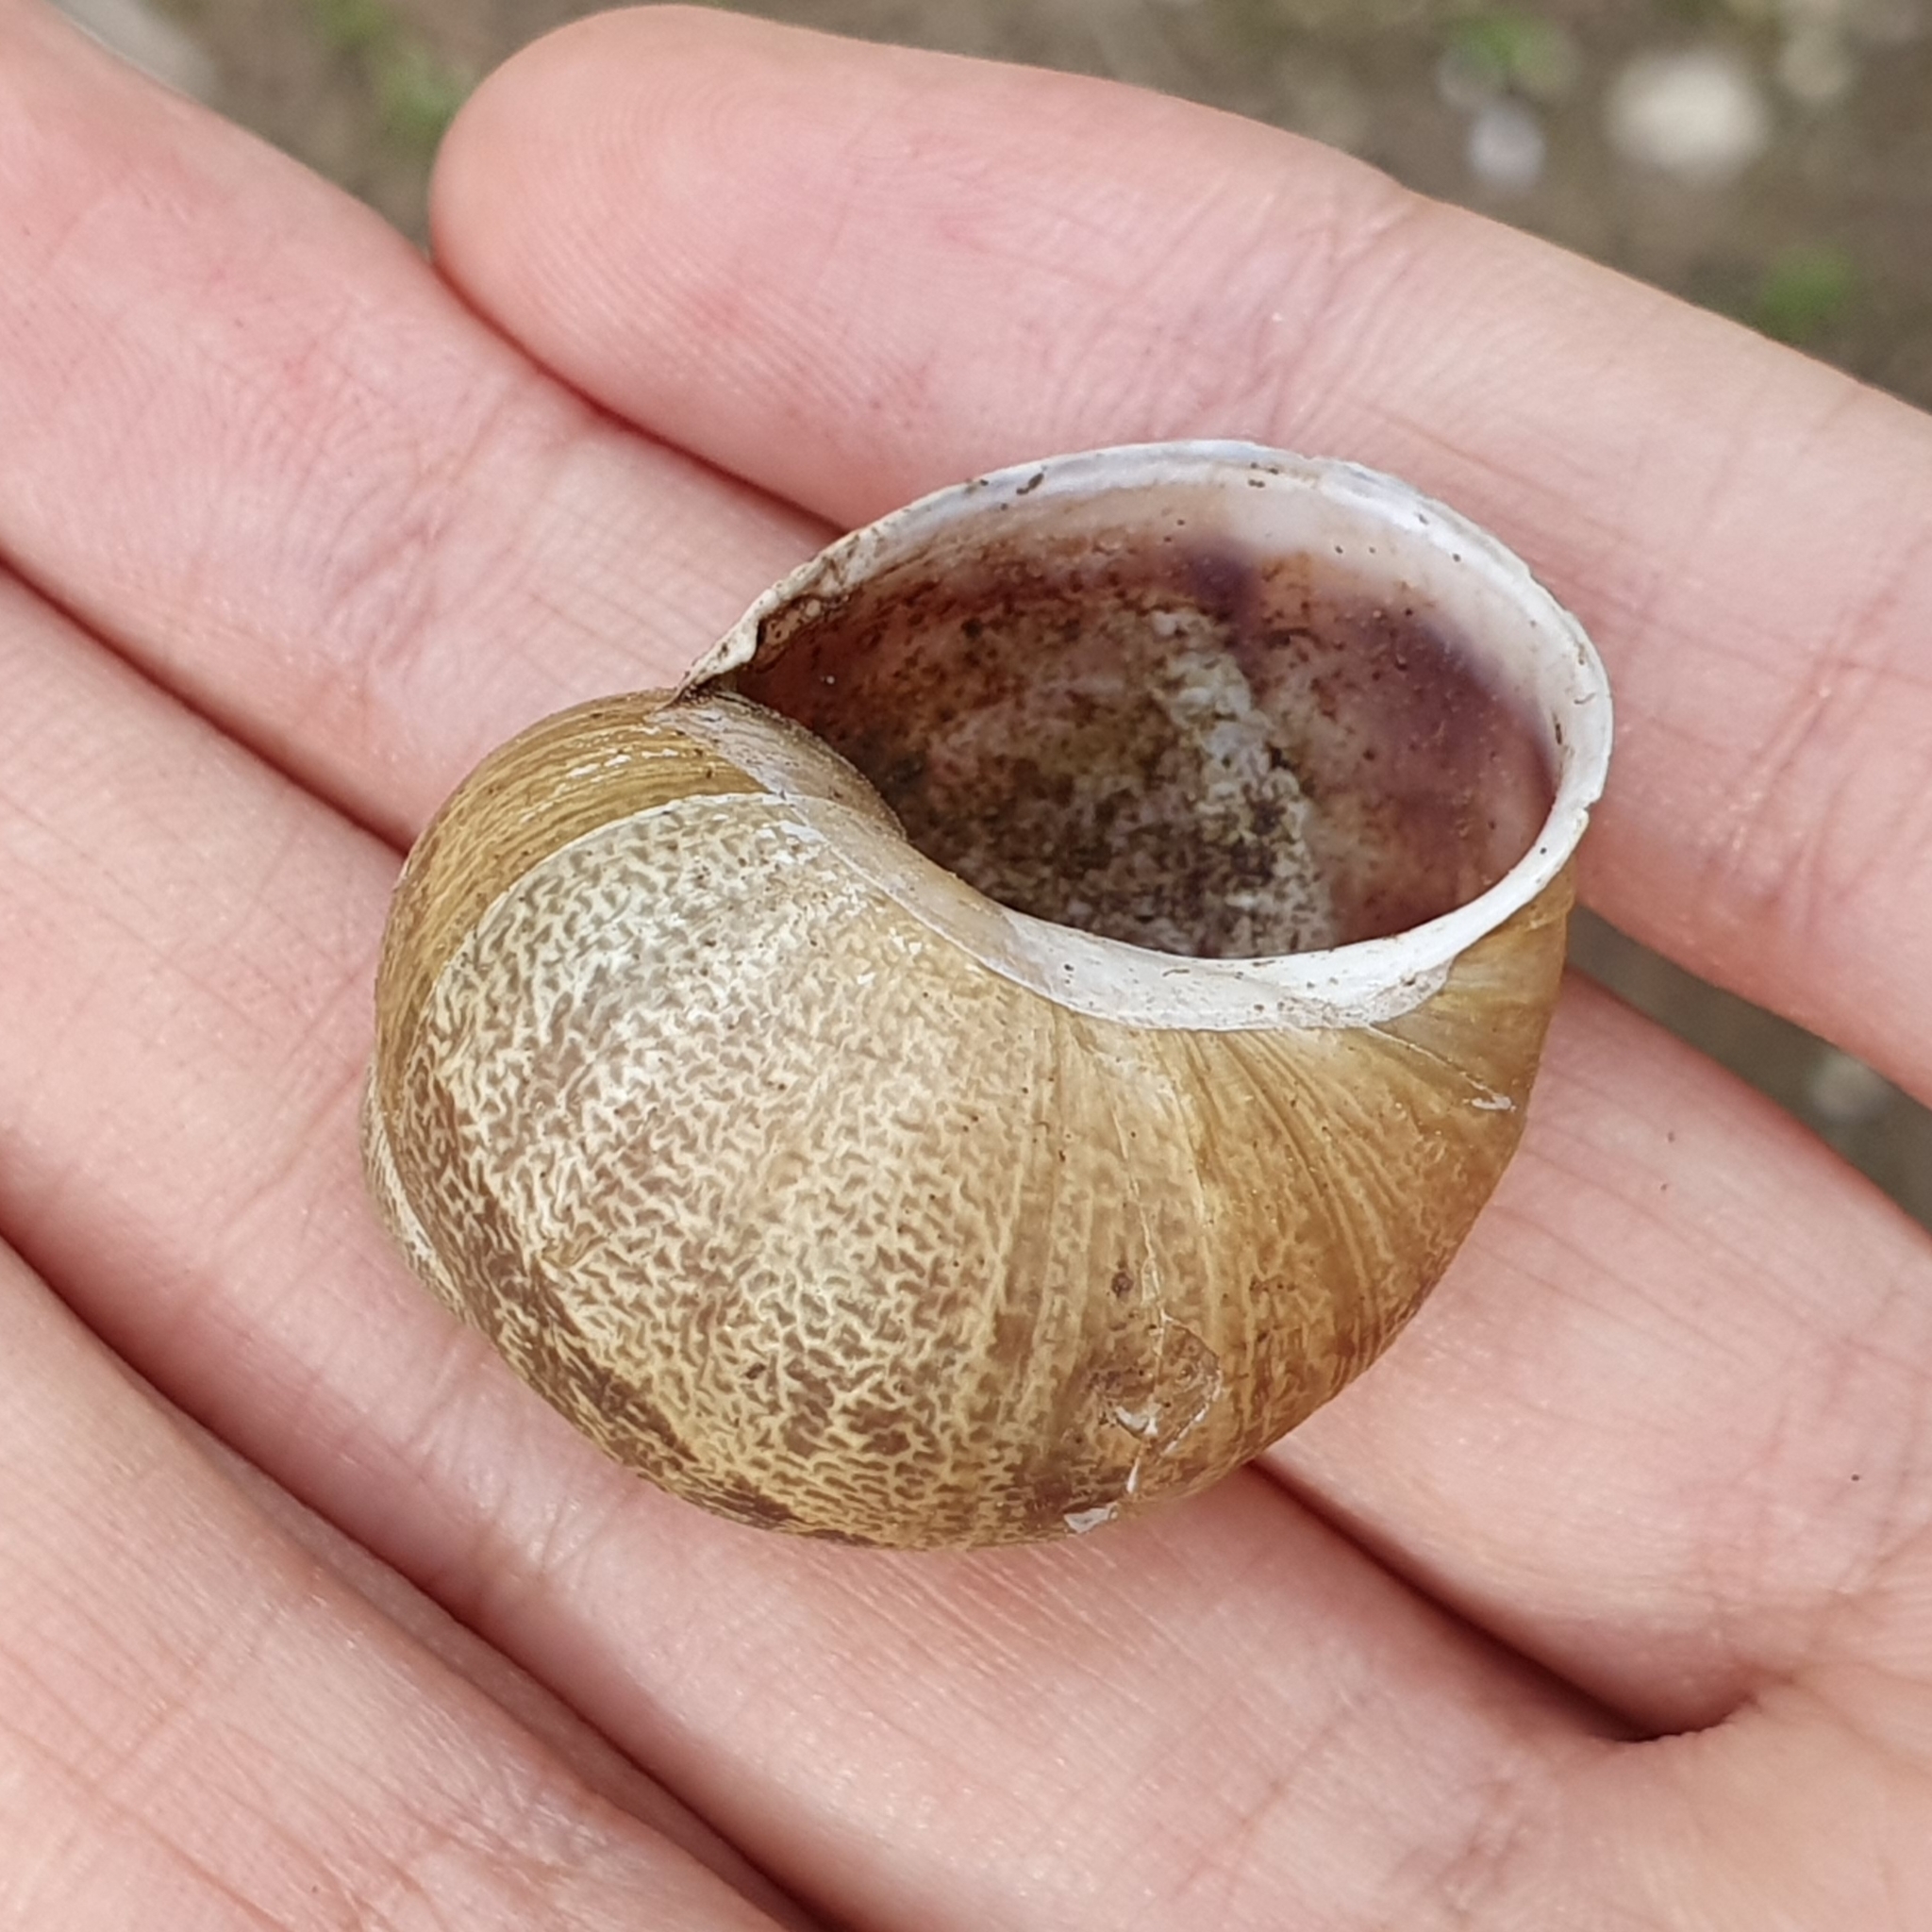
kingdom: Animalia
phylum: Mollusca
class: Gastropoda
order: Stylommatophora
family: Helicidae
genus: Cornu
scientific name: Cornu aspersum
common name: Brown garden snail
